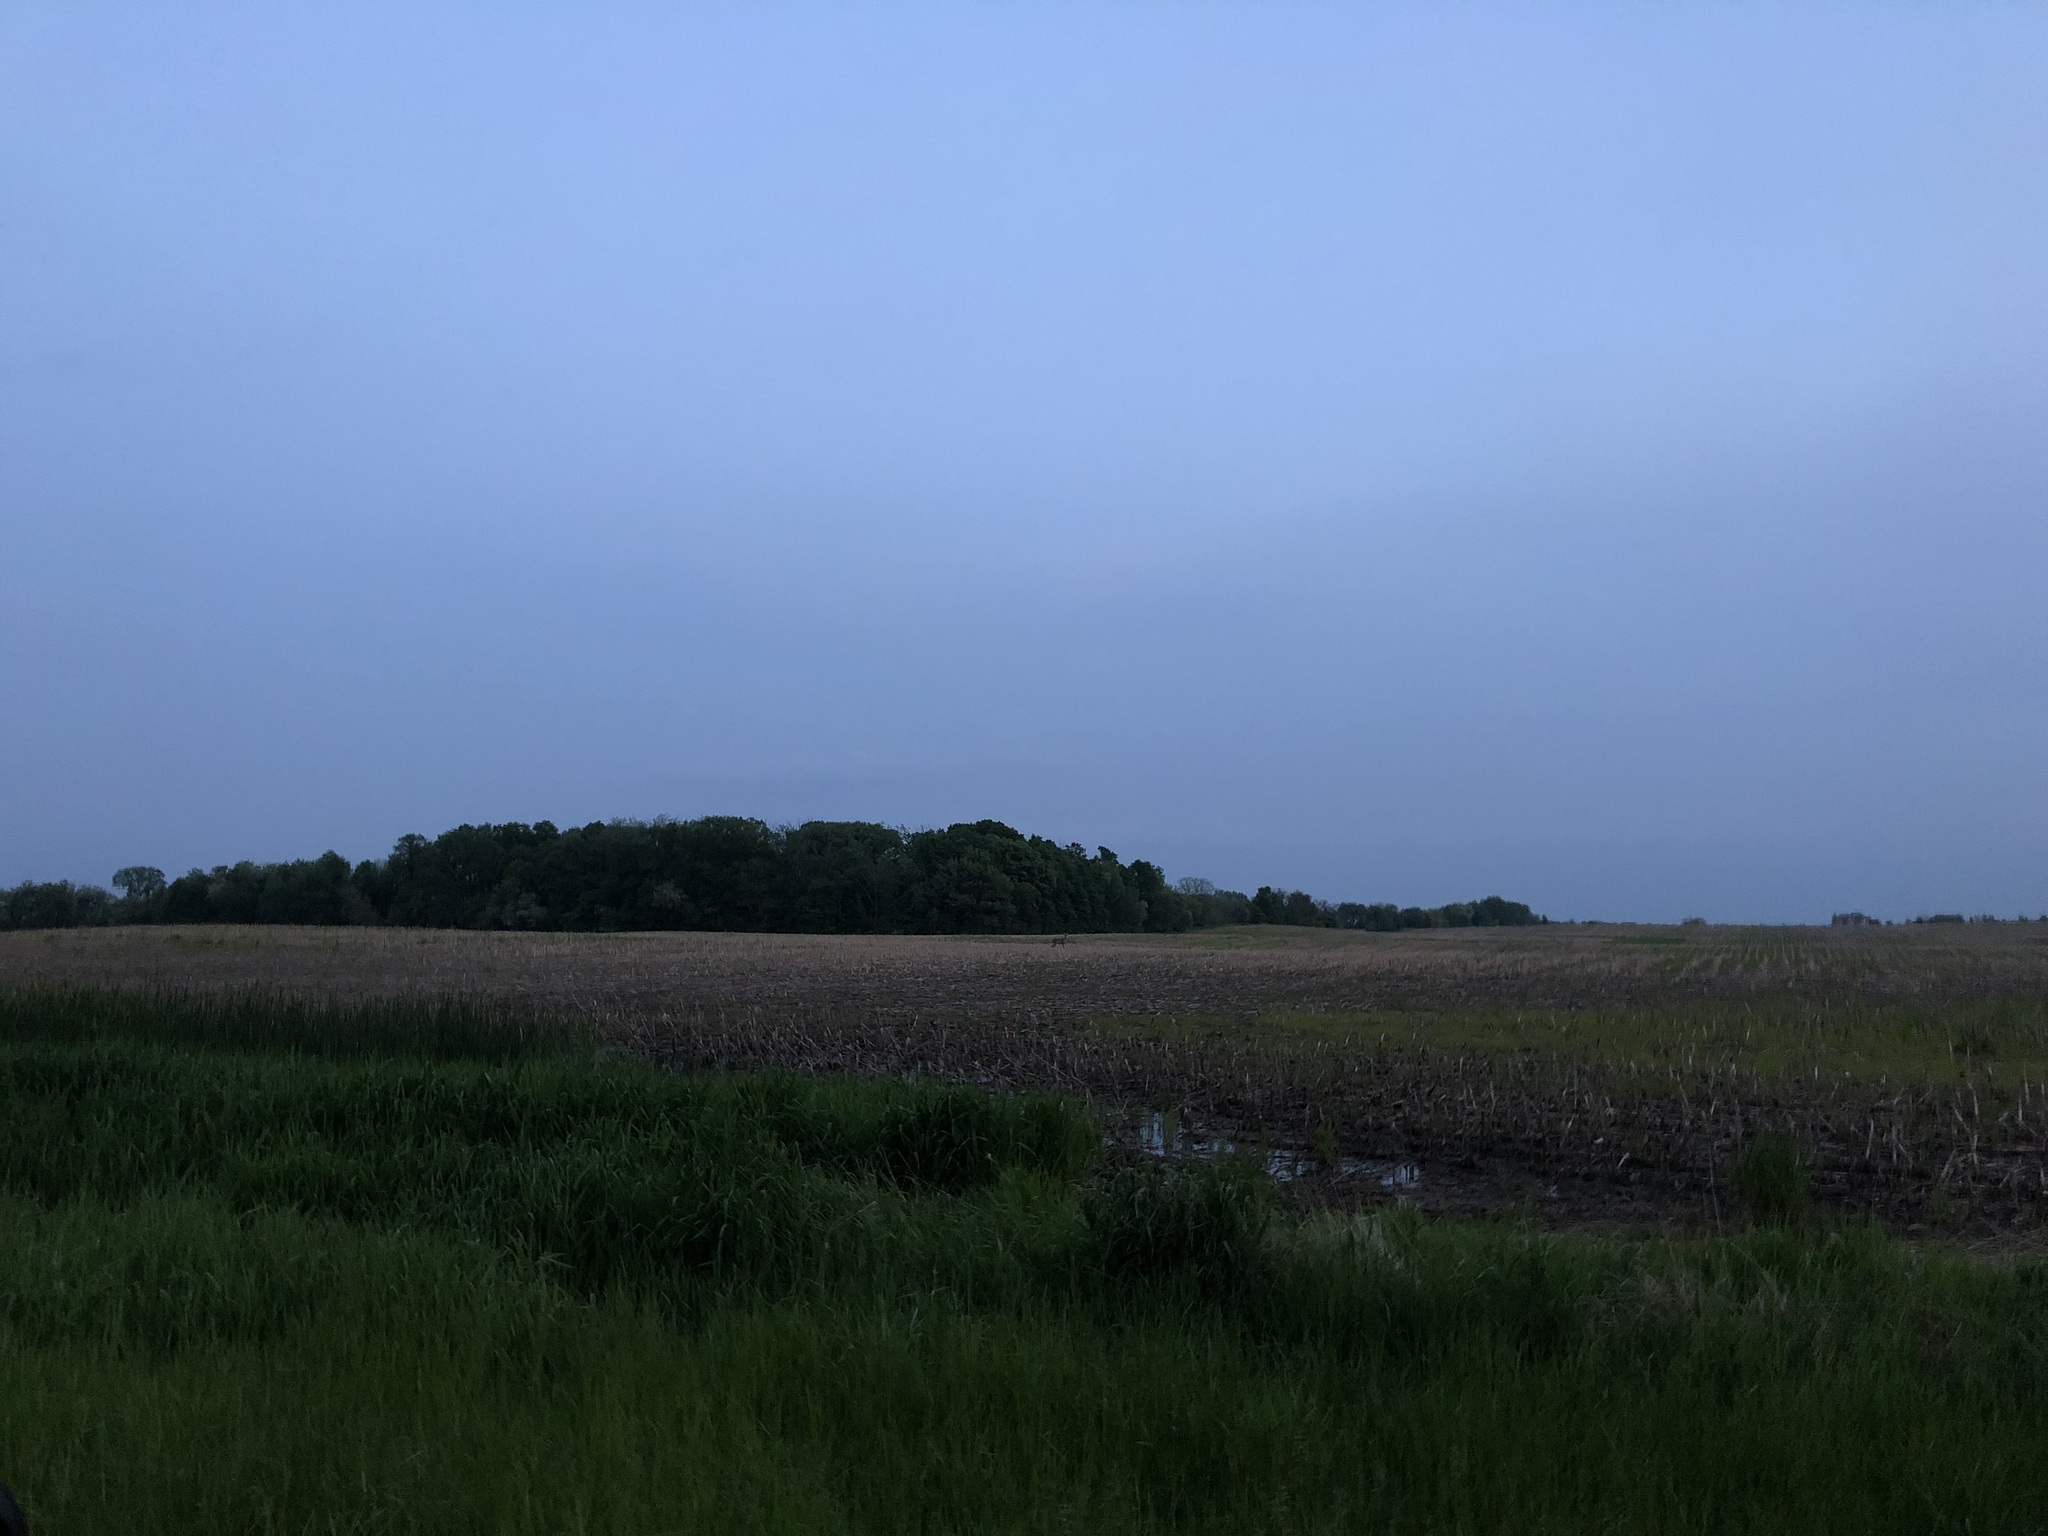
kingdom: Animalia
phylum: Chordata
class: Mammalia
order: Artiodactyla
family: Cervidae
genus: Odocoileus
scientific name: Odocoileus virginianus
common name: White-tailed deer
